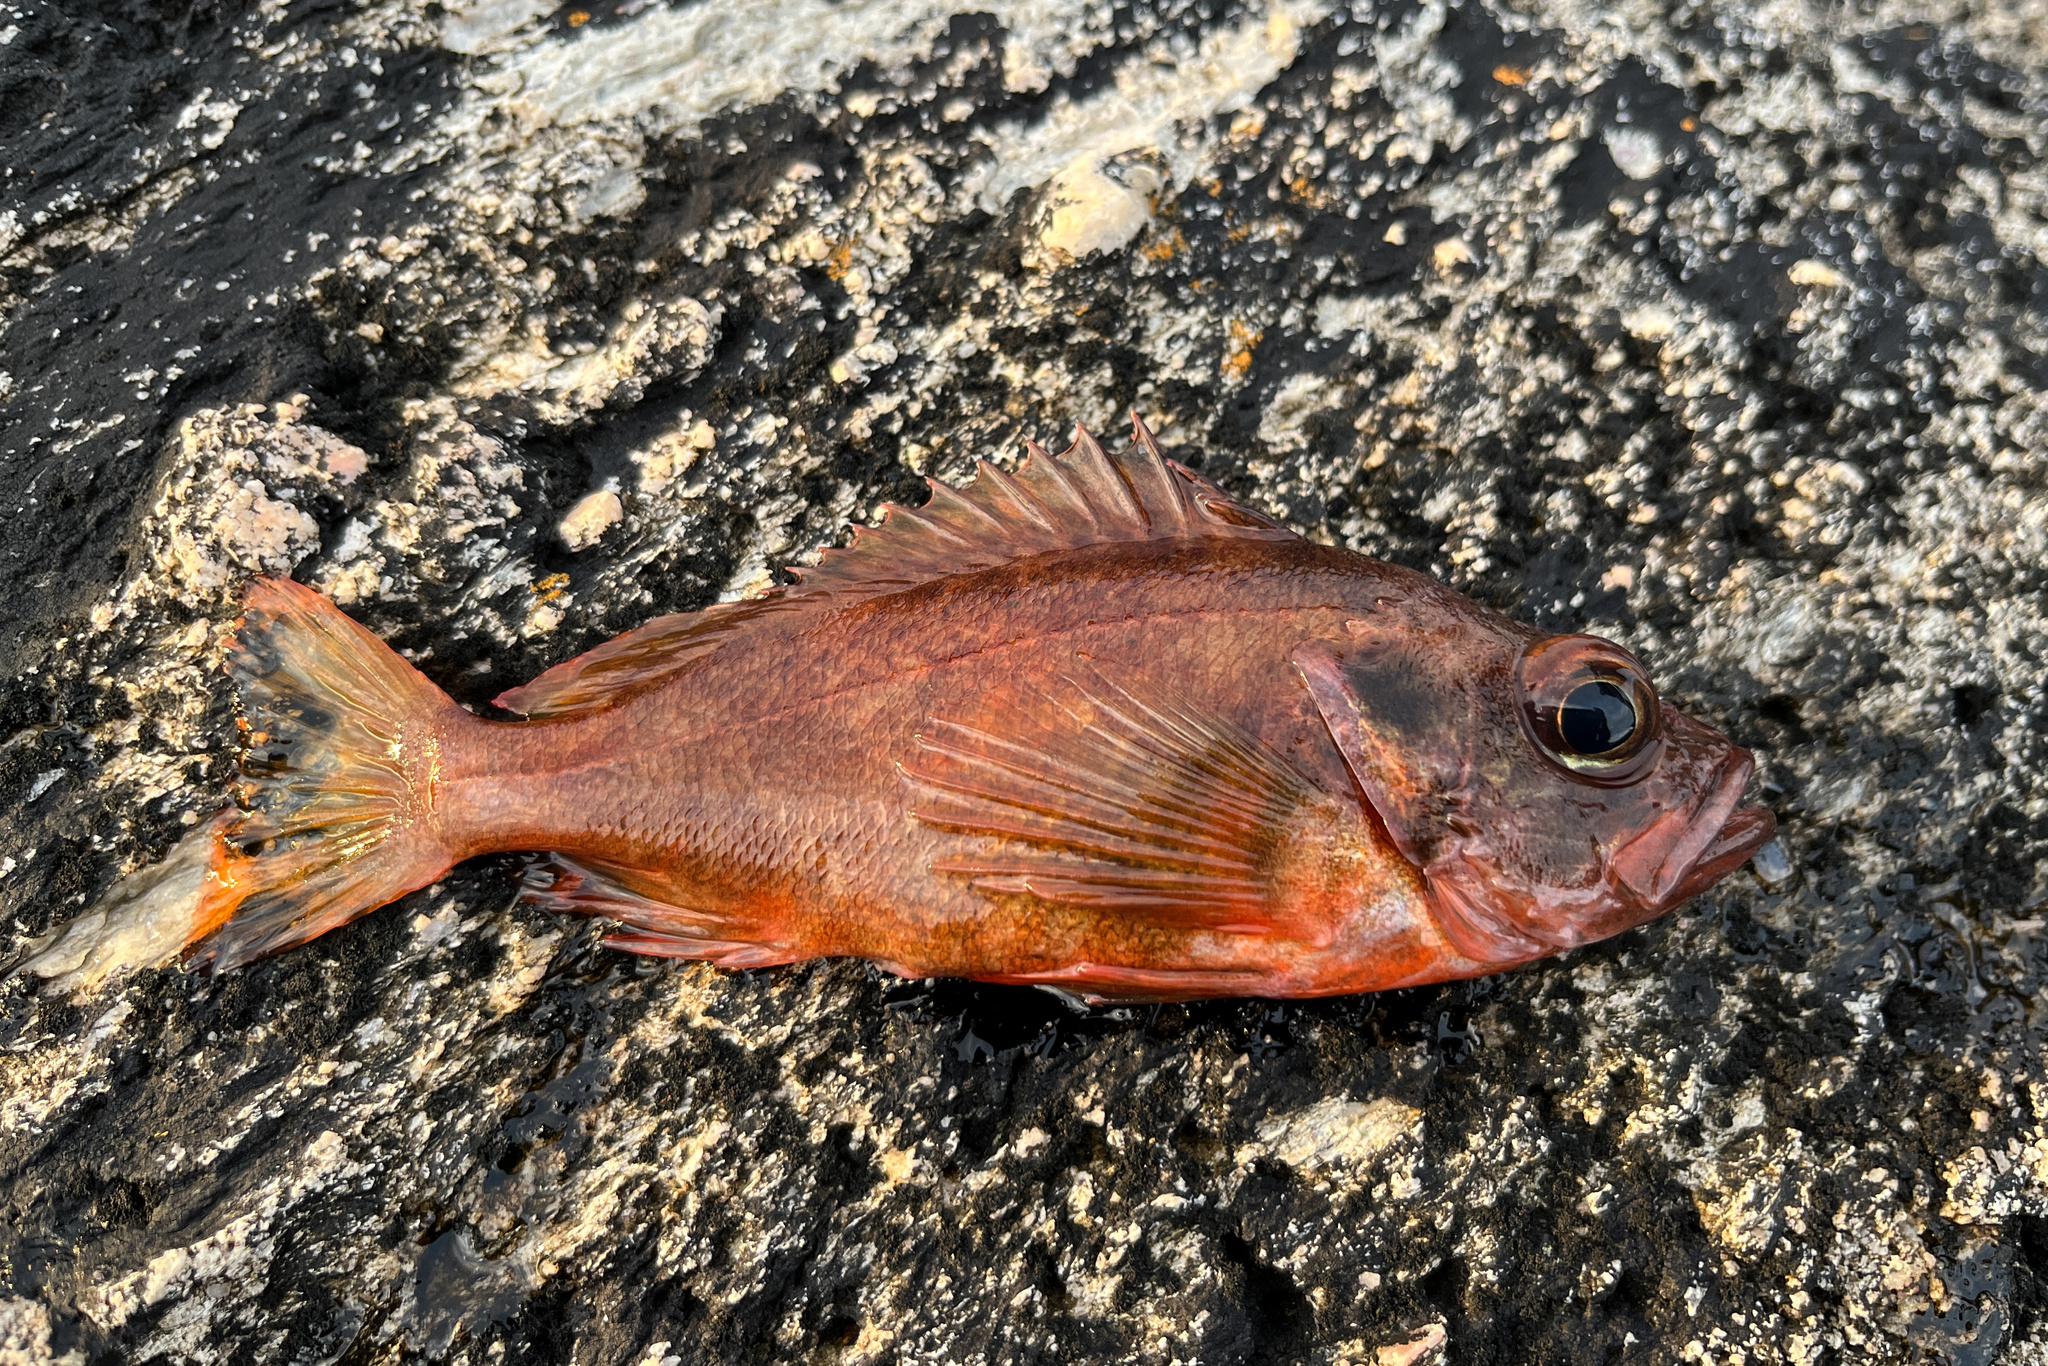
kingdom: Animalia
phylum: Chordata
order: Scorpaeniformes
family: Sebastidae
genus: Sebastes
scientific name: Sebastes viviparus
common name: Norway haddock
